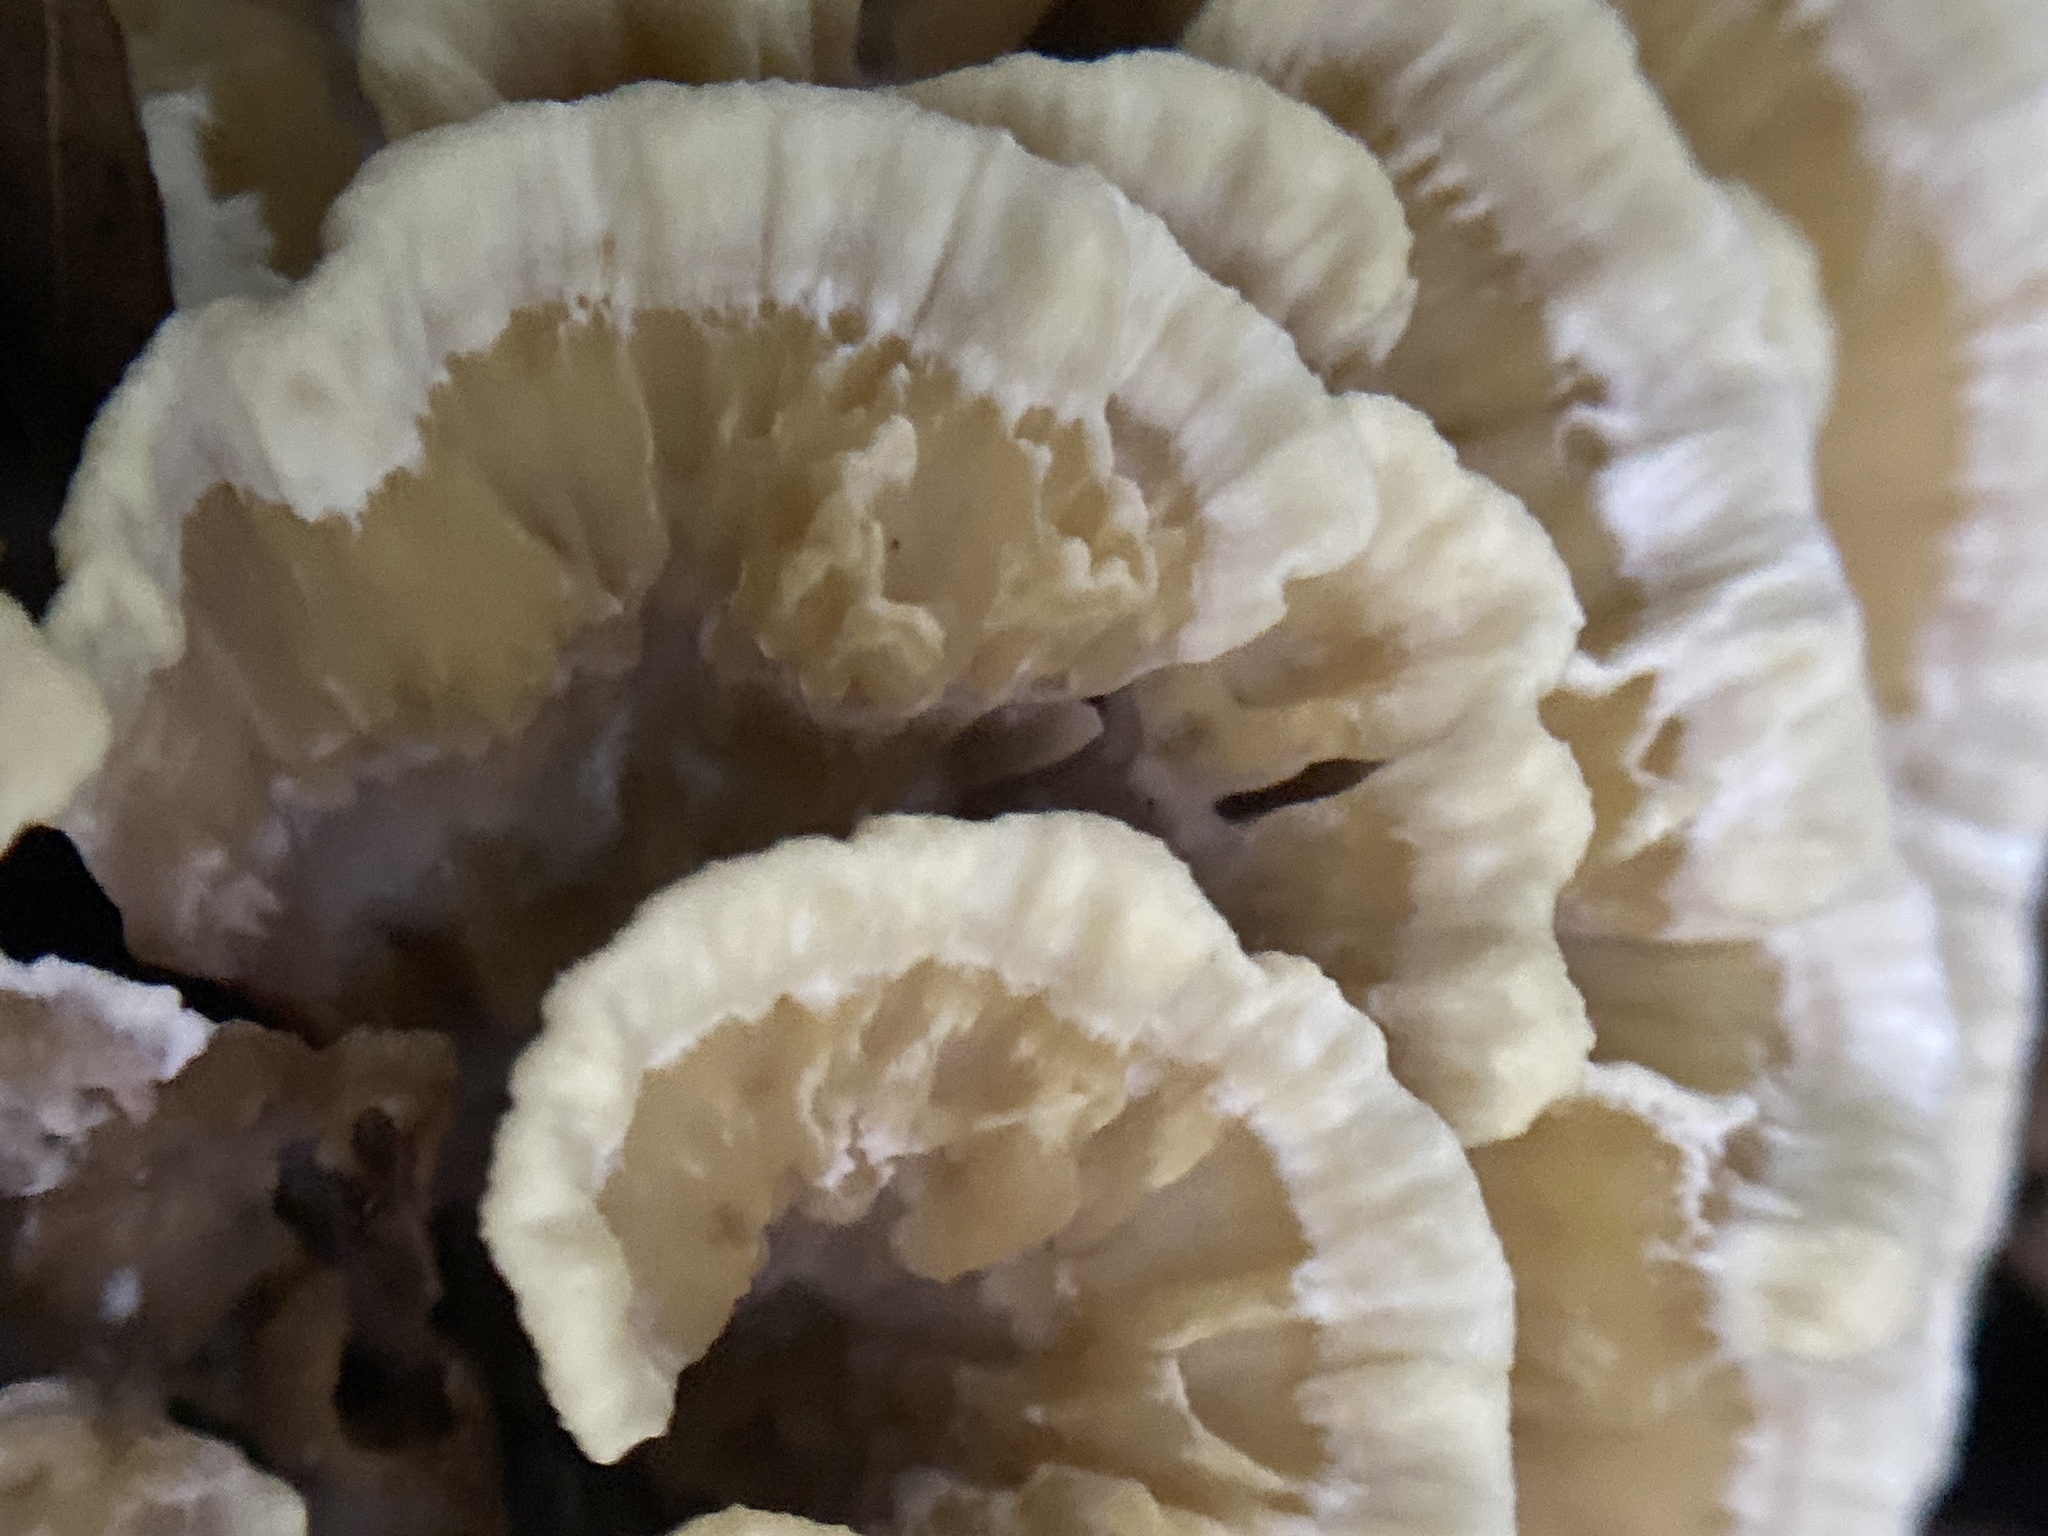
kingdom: Fungi
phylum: Basidiomycota
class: Agaricomycetes
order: Thelephorales
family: Thelephoraceae
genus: Thelephora
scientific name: Thelephora terrestris
